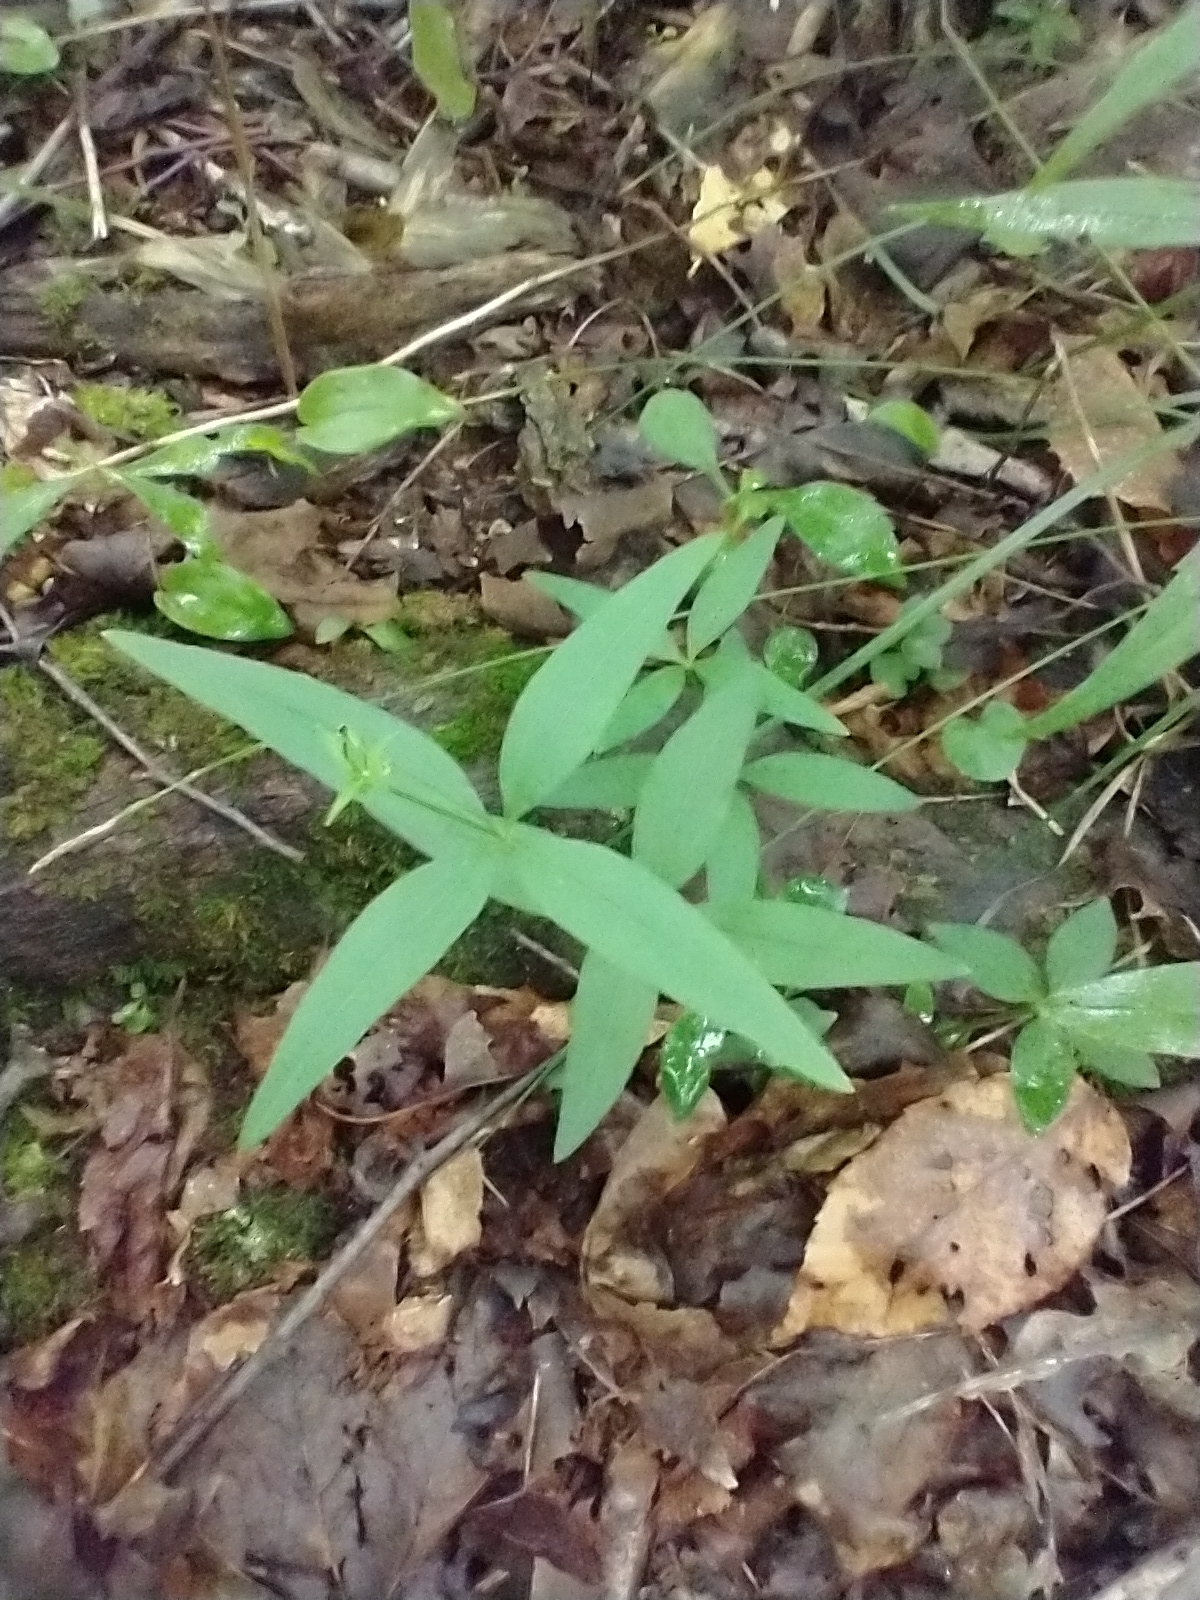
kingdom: Plantae
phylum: Tracheophyta
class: Magnoliopsida
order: Gentianales
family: Rubiaceae
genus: Galium
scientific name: Galium lanceolatum
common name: Lance-leaved wild licorice
